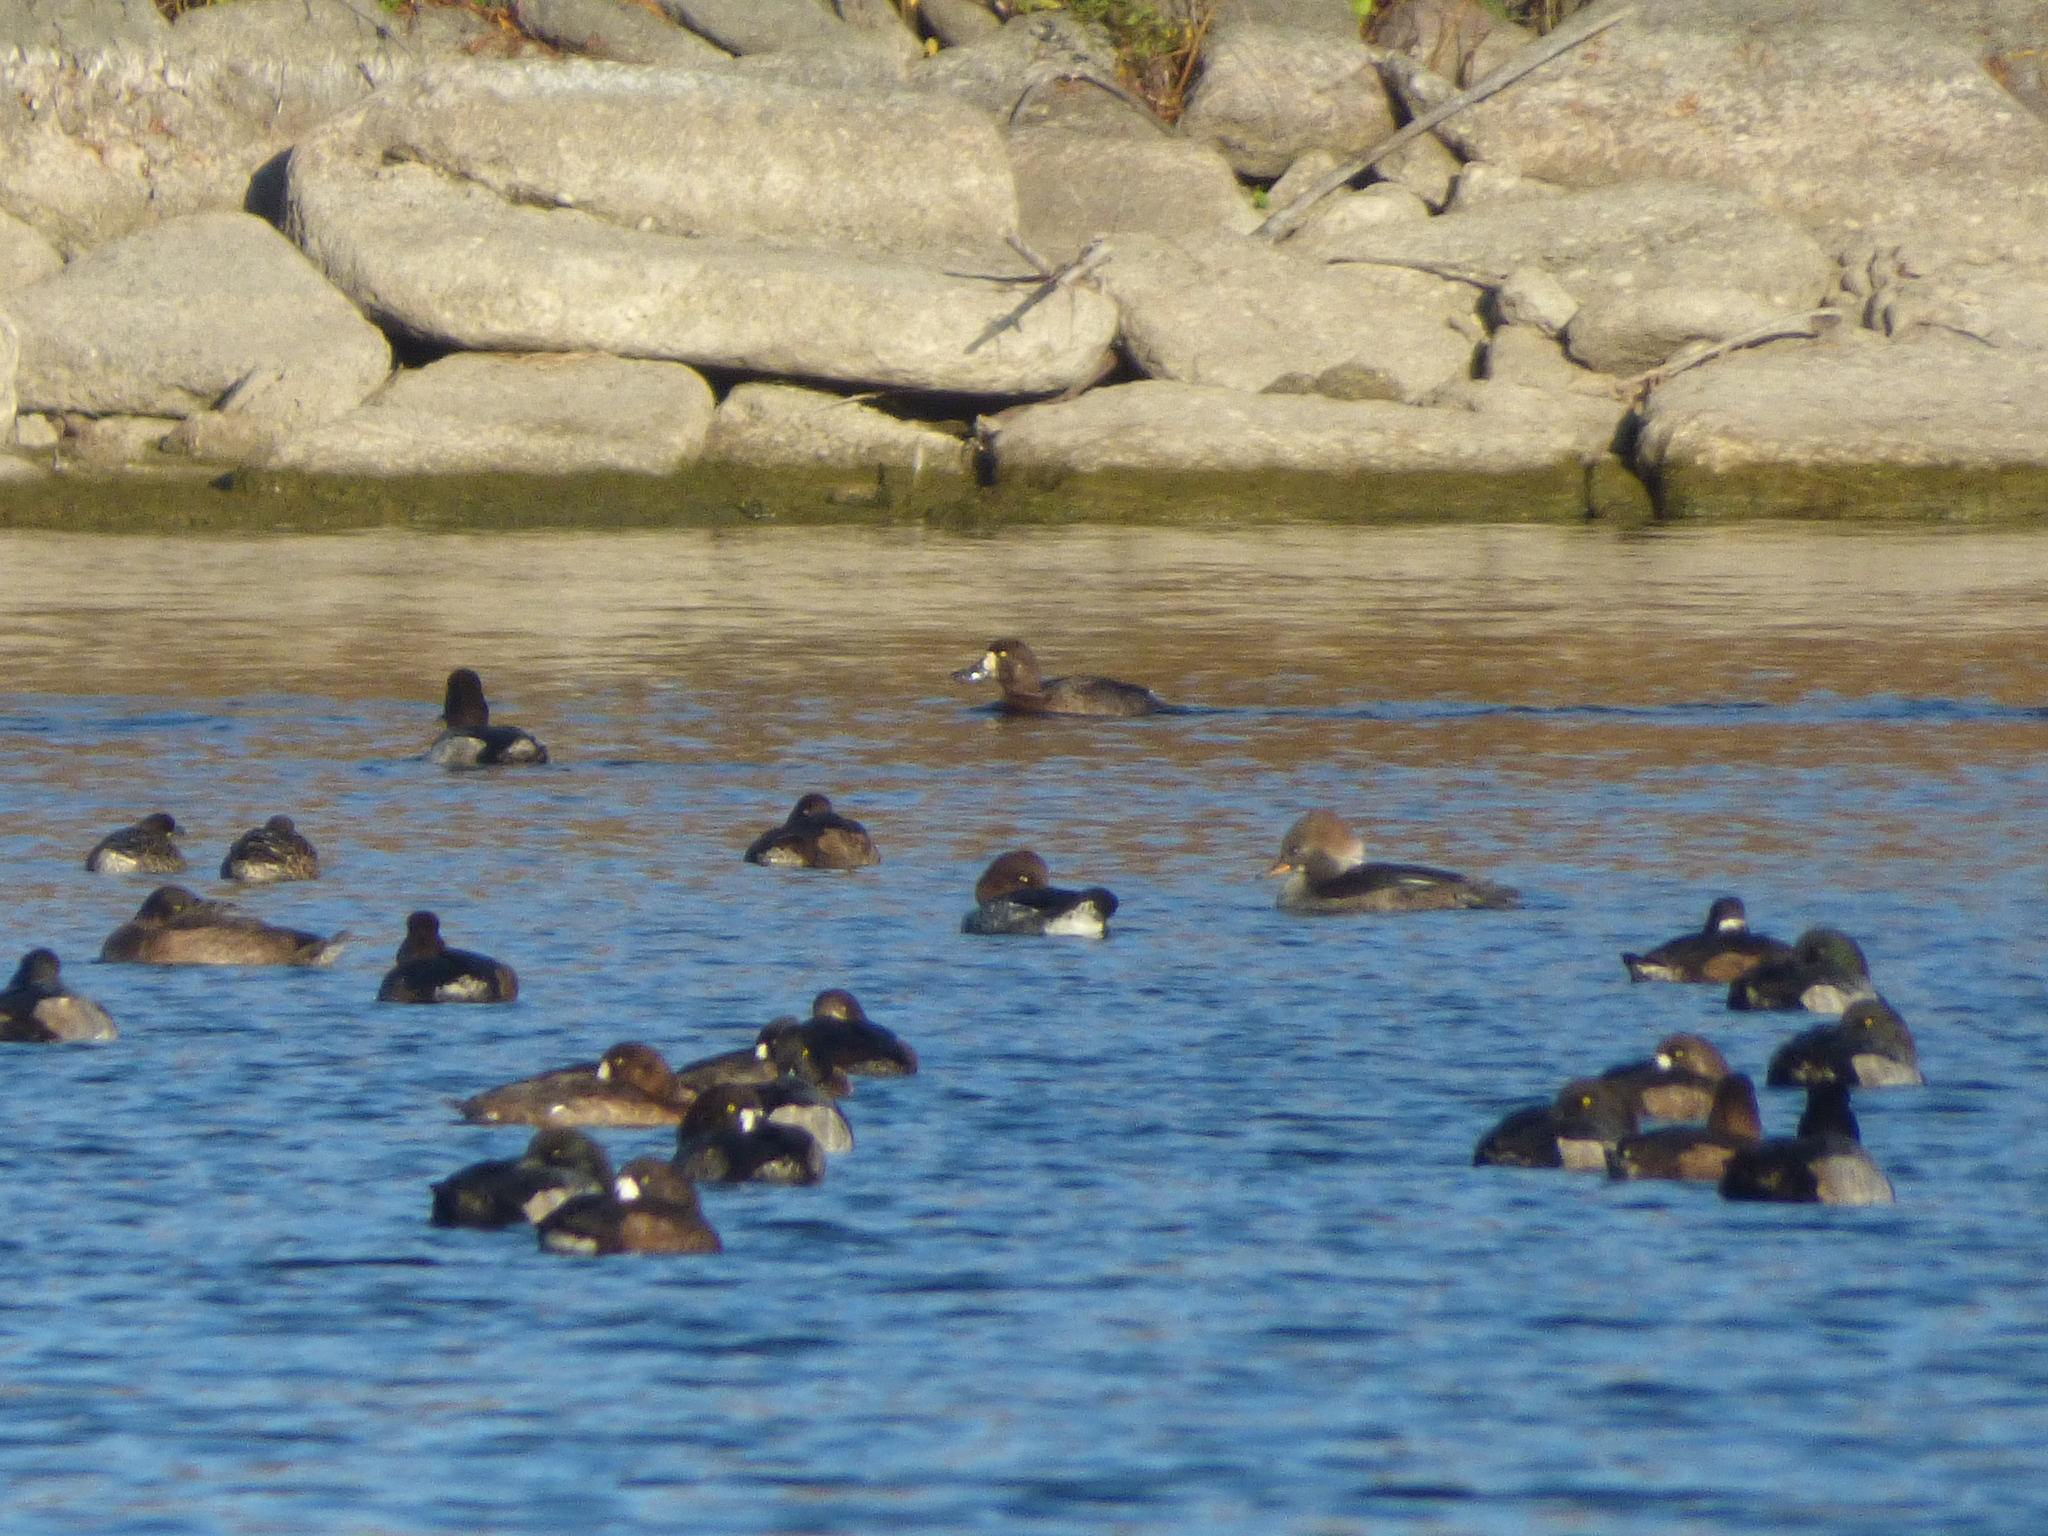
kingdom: Animalia
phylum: Chordata
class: Aves
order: Anseriformes
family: Anatidae
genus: Lophodytes
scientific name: Lophodytes cucullatus
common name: Hooded merganser
